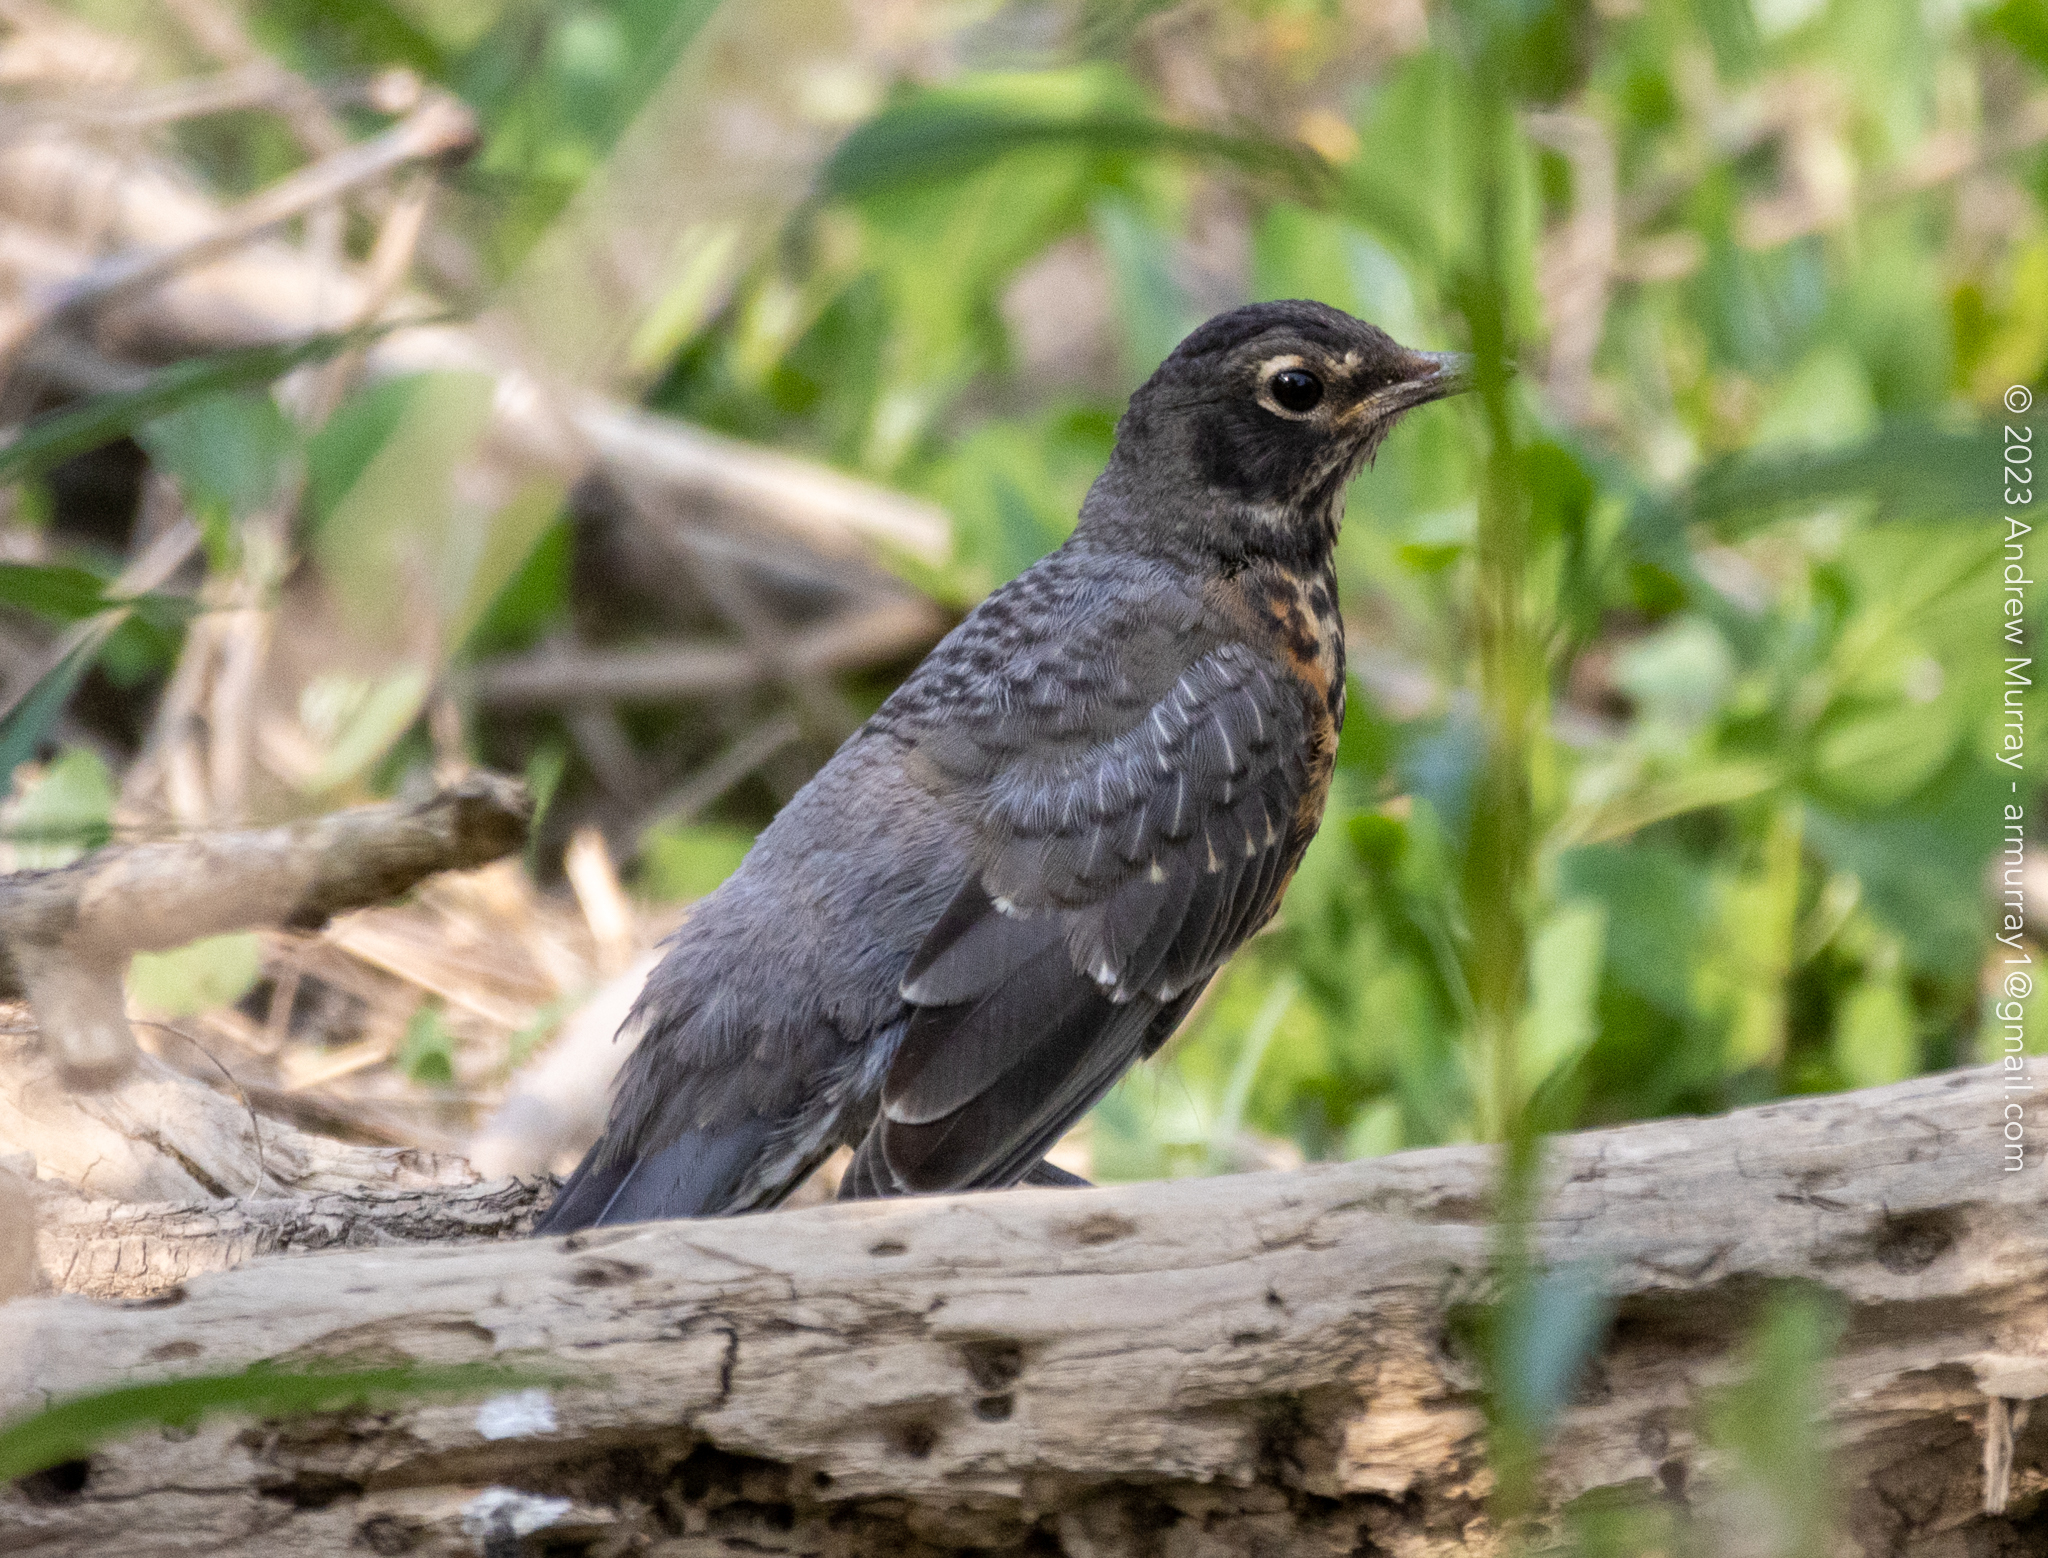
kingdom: Animalia
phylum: Chordata
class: Aves
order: Passeriformes
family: Turdidae
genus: Turdus
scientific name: Turdus migratorius
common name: American robin
